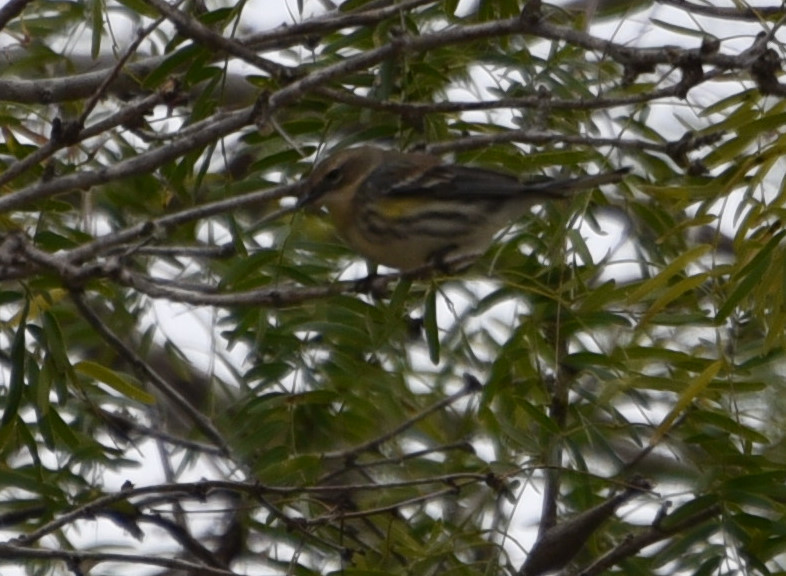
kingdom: Animalia
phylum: Chordata
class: Aves
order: Passeriformes
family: Parulidae
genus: Setophaga
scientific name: Setophaga coronata
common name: Myrtle warbler
